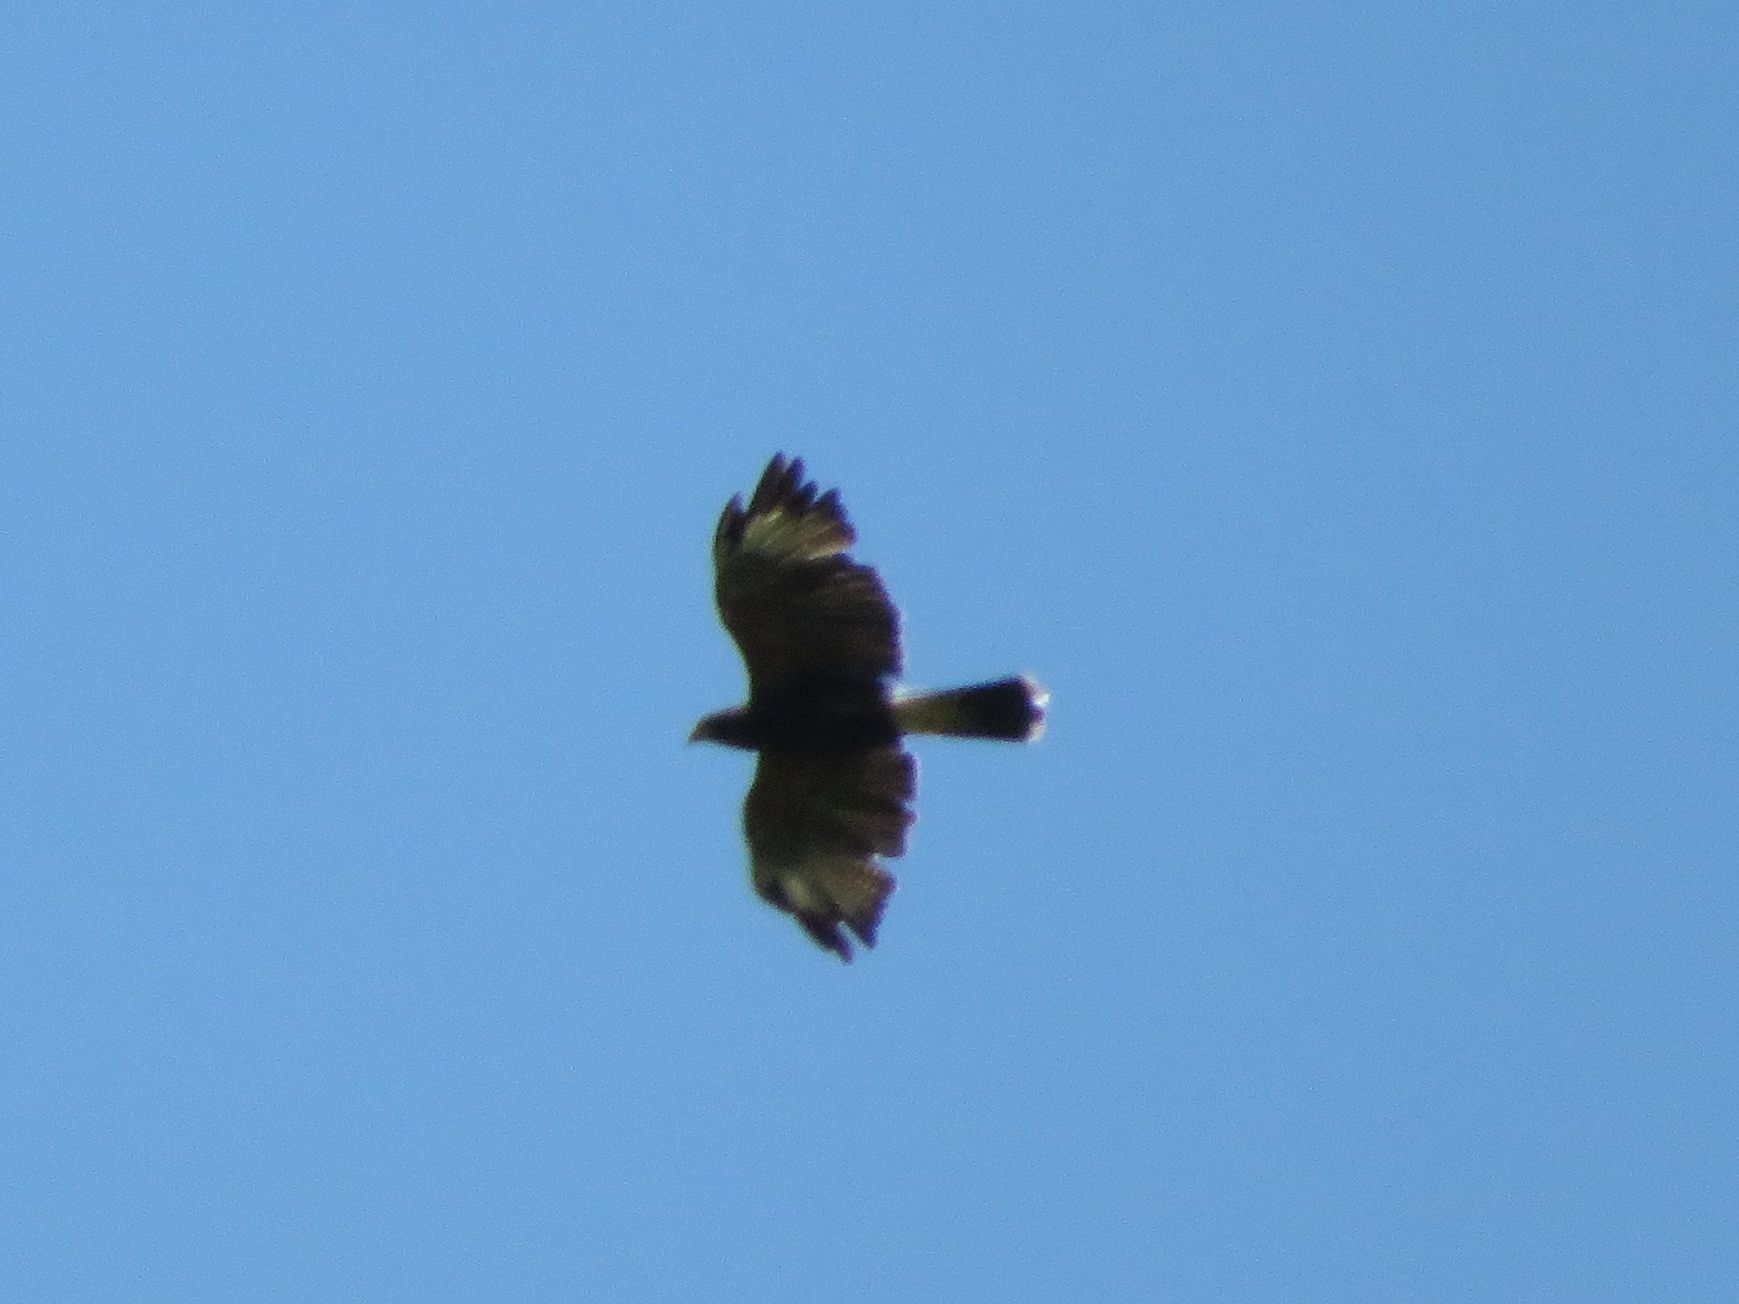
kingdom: Animalia
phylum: Chordata
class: Aves
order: Accipitriformes
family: Accipitridae
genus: Parabuteo
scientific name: Parabuteo unicinctus
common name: Harris's hawk
